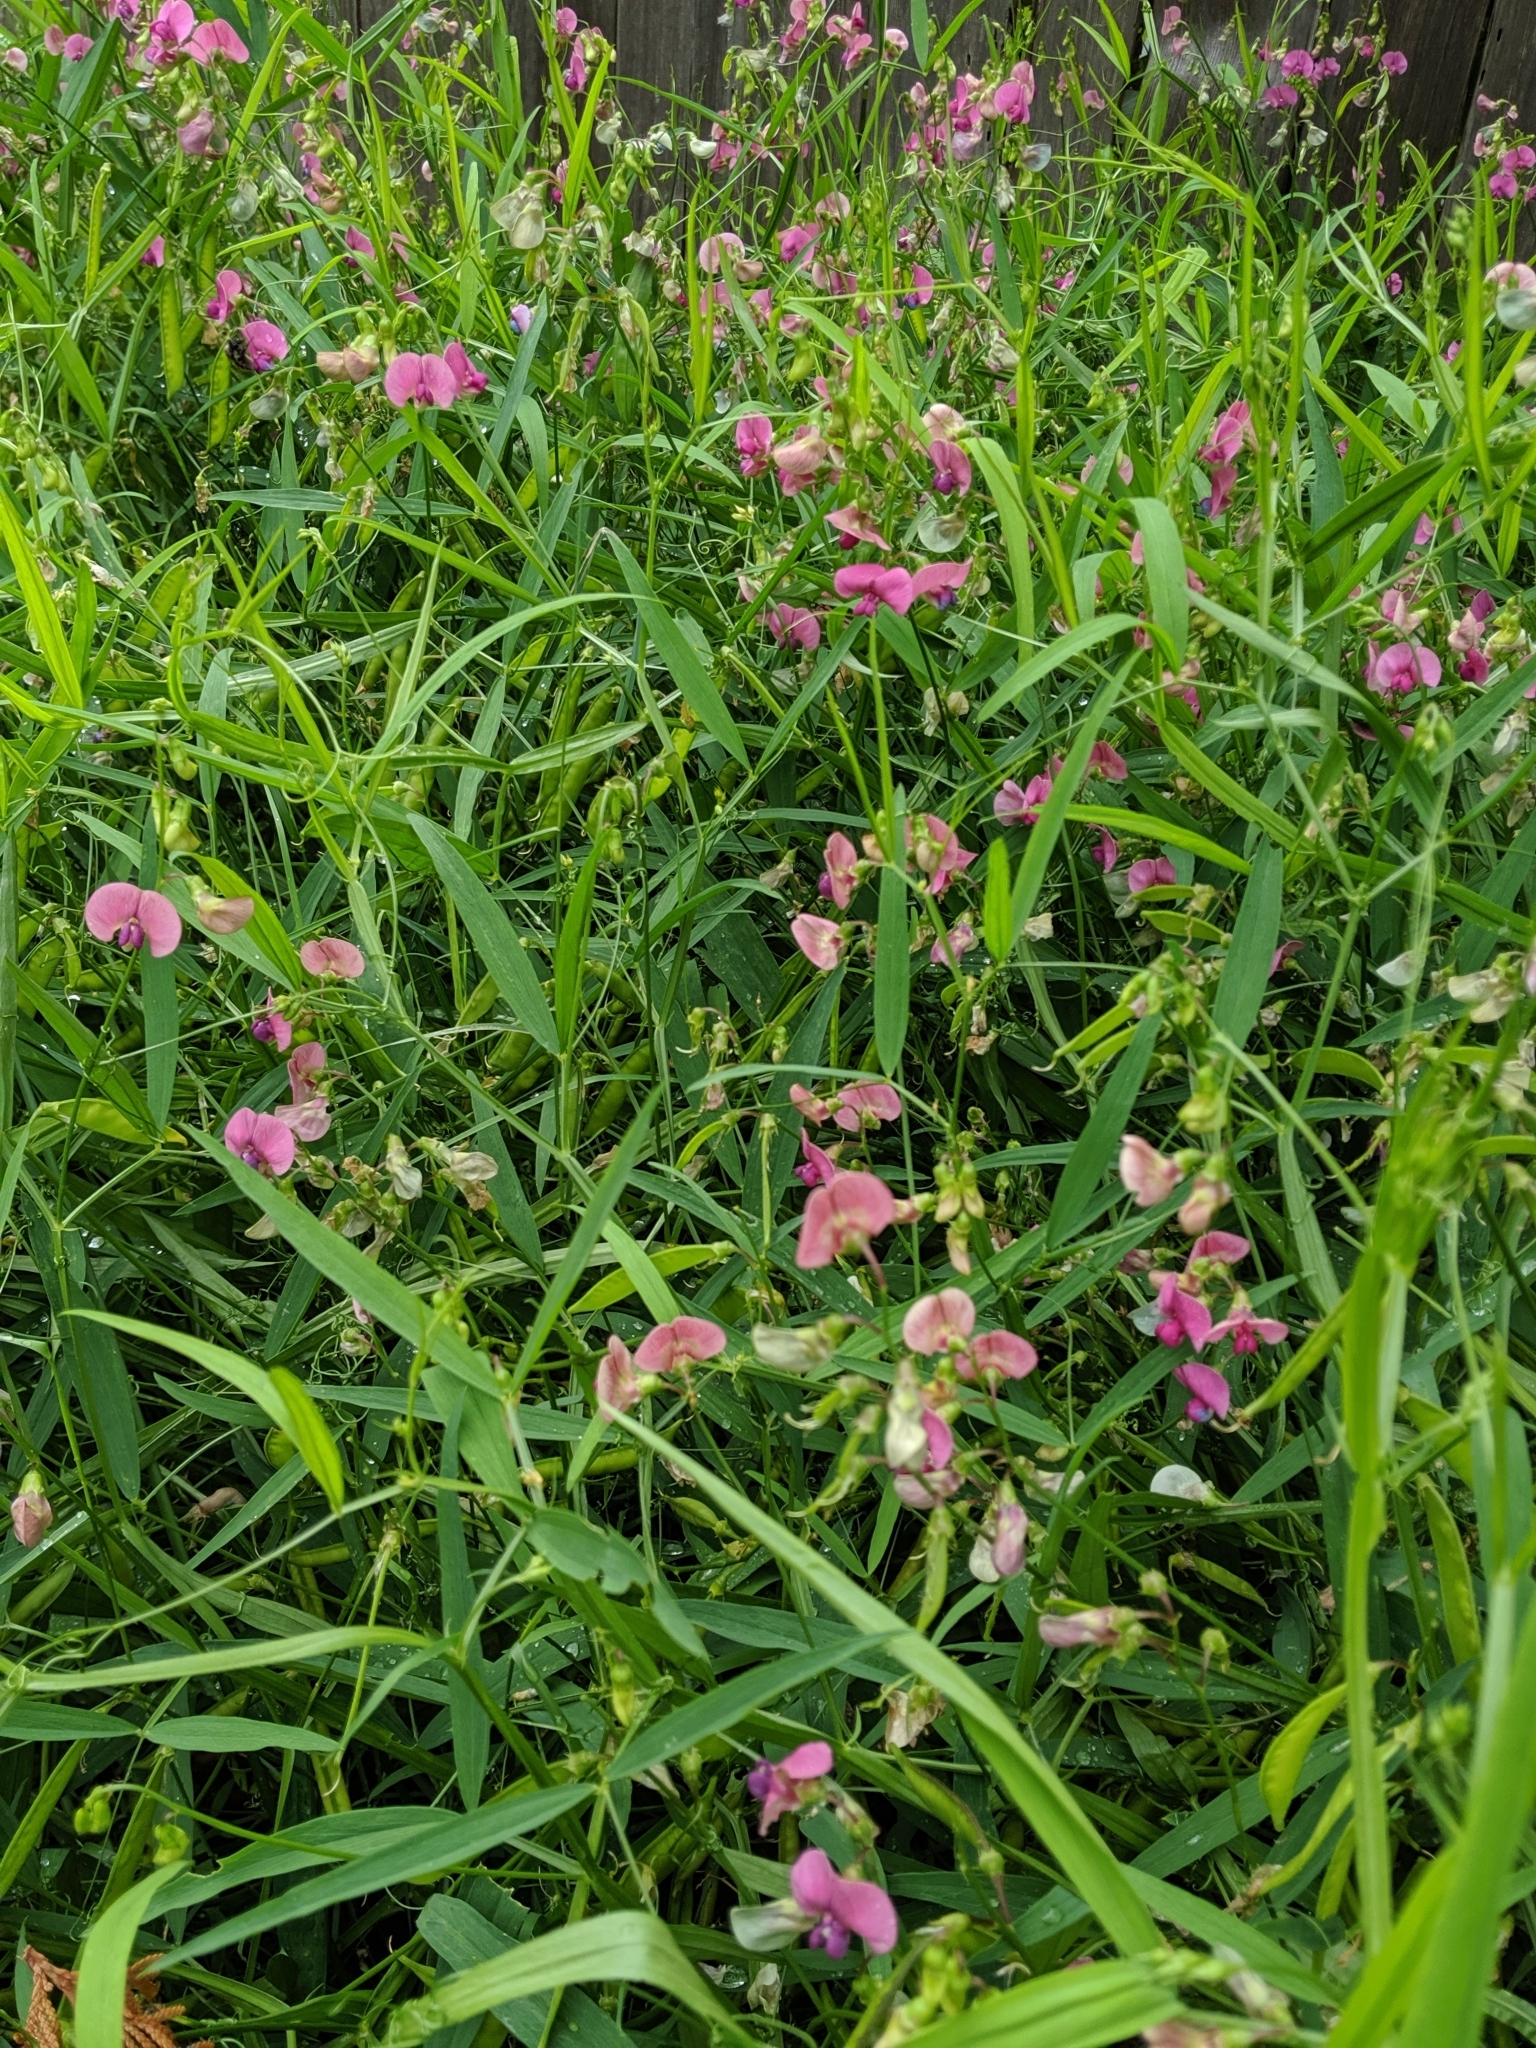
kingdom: Plantae
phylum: Tracheophyta
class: Magnoliopsida
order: Fabales
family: Fabaceae
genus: Lathyrus
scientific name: Lathyrus sylvestris
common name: Flat pea
